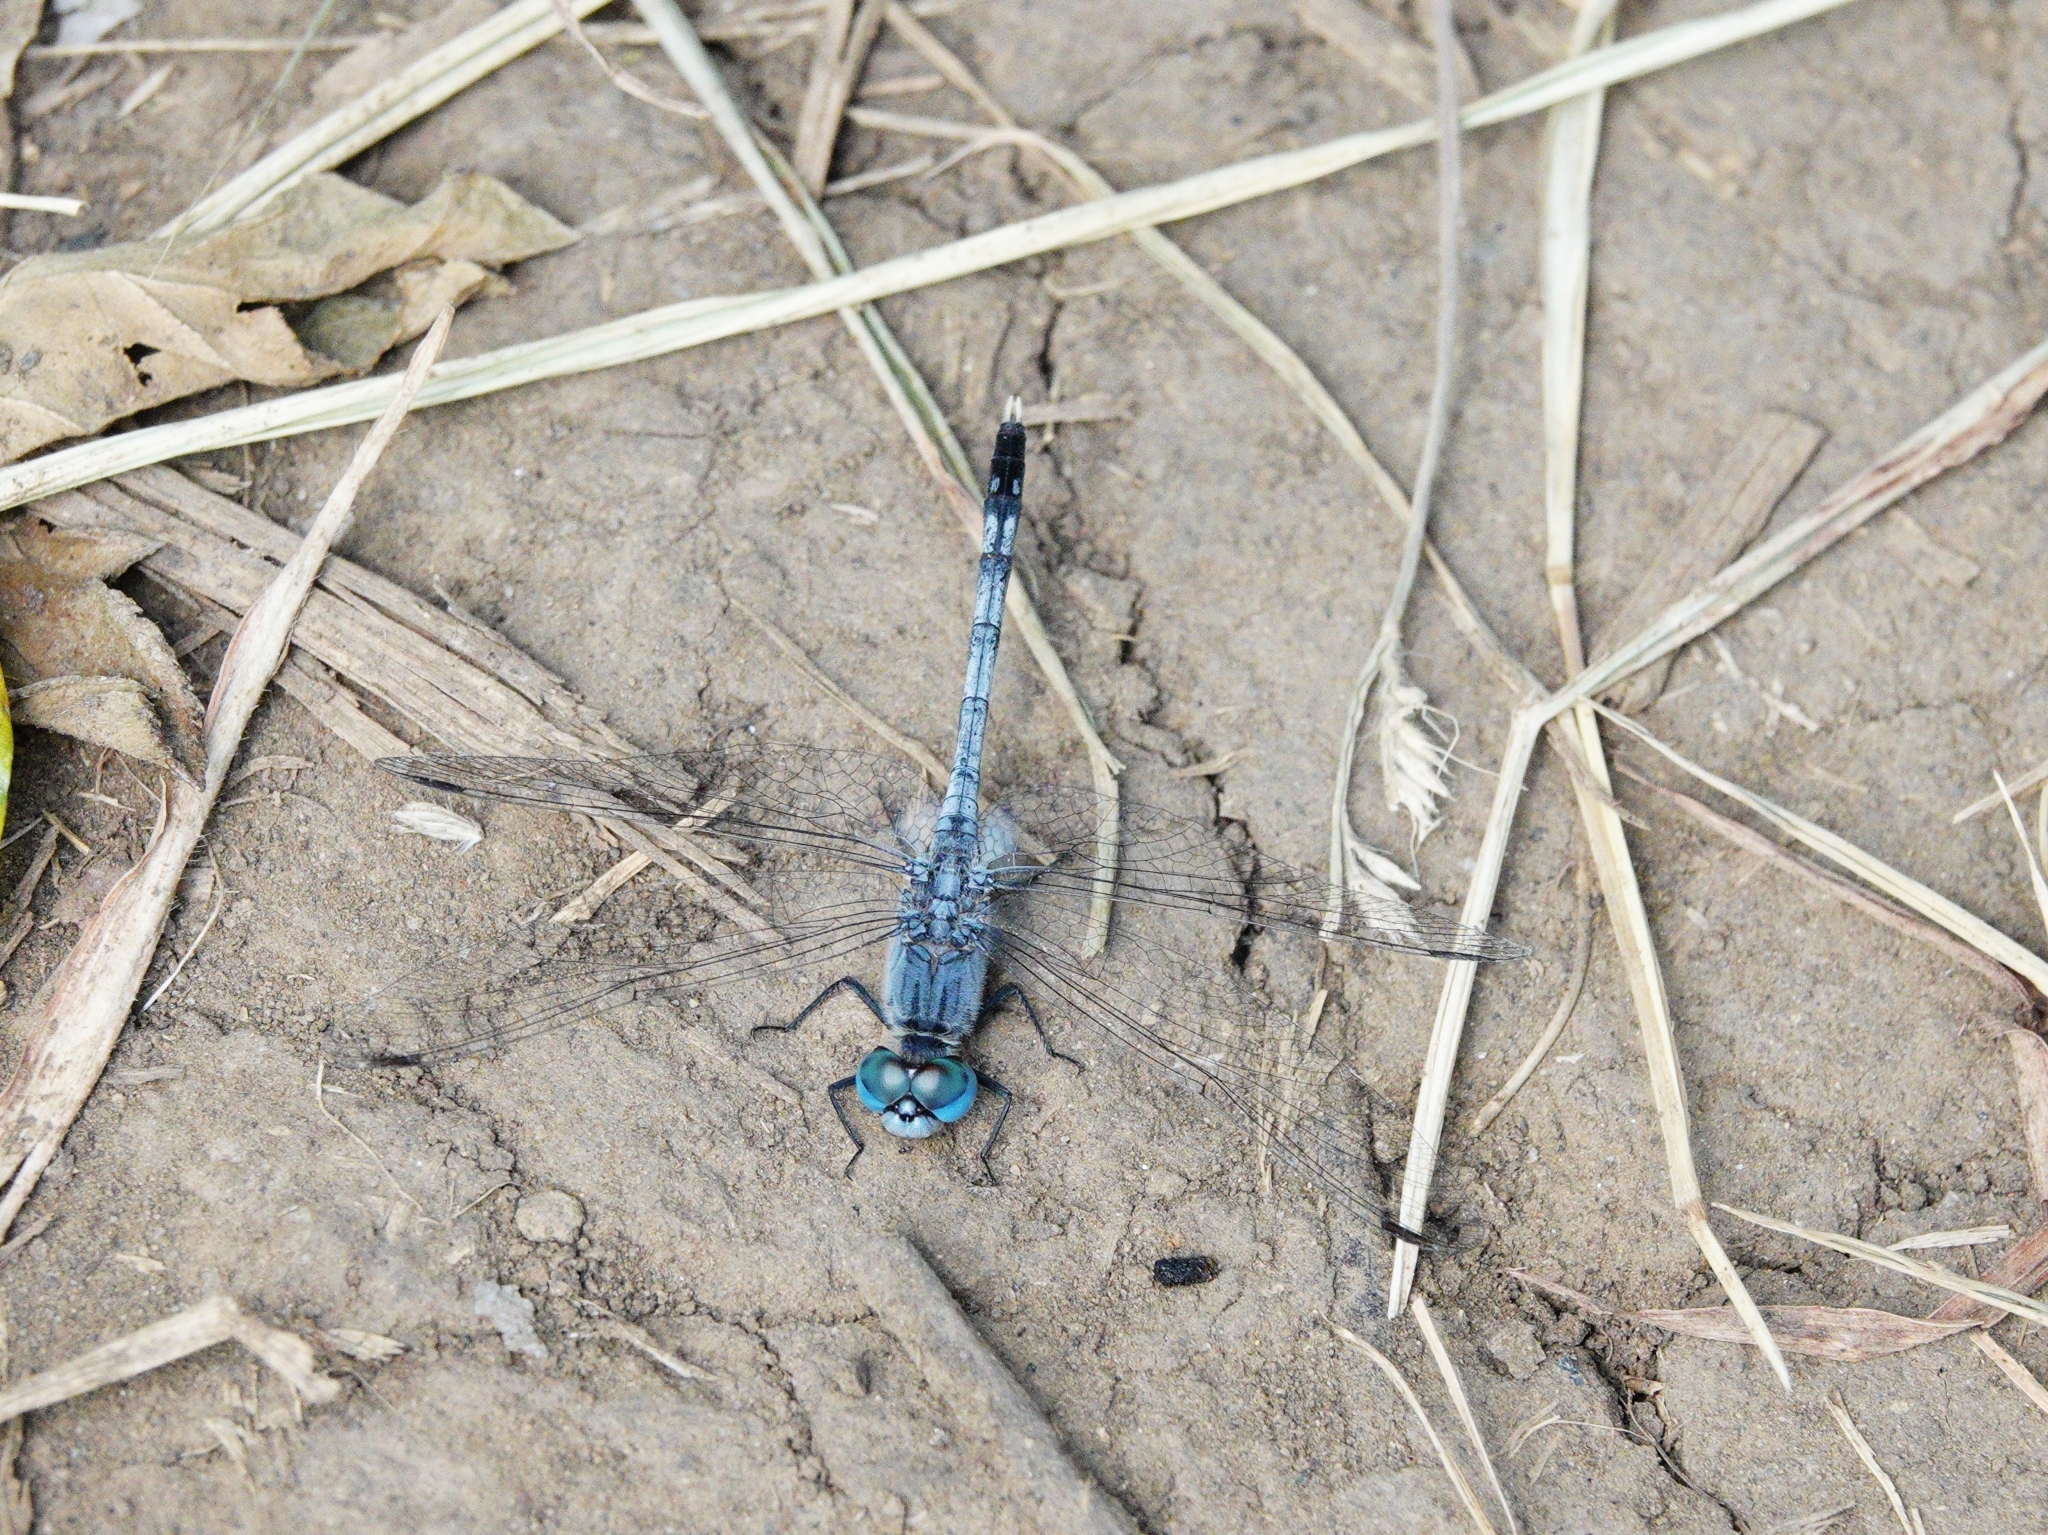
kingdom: Animalia
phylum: Arthropoda
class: Insecta
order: Odonata
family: Libellulidae
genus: Diplacodes
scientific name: Diplacodes trivialis
